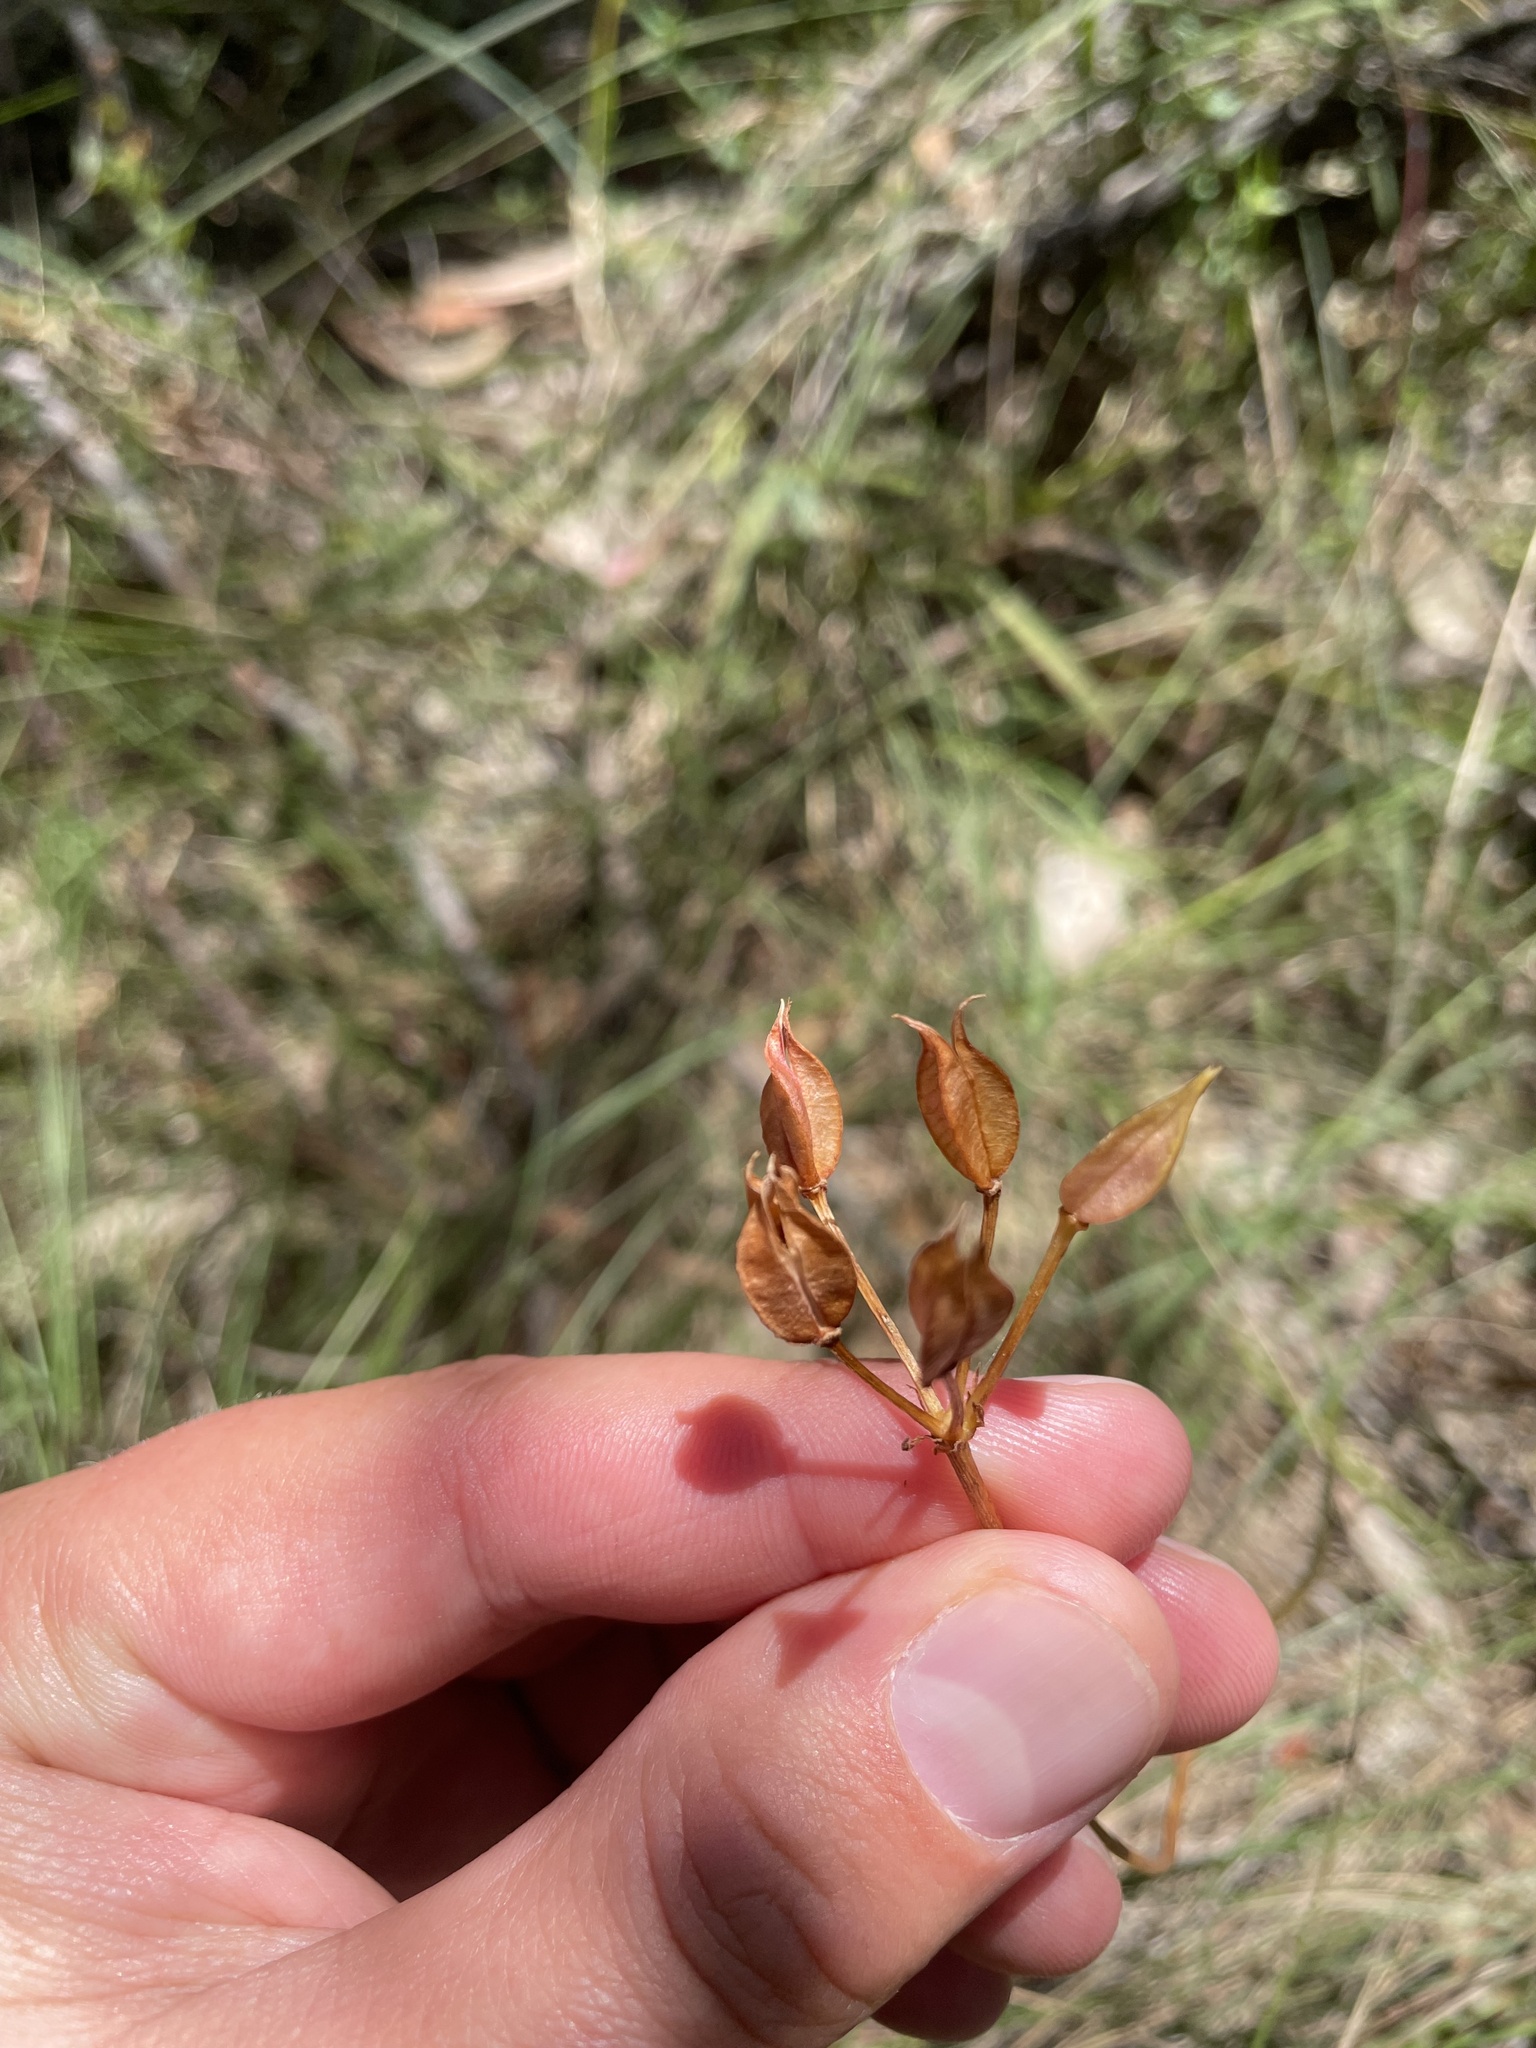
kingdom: Plantae
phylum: Tracheophyta
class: Liliopsida
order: Liliales
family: Colchicaceae
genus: Burchardia
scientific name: Burchardia umbellata
